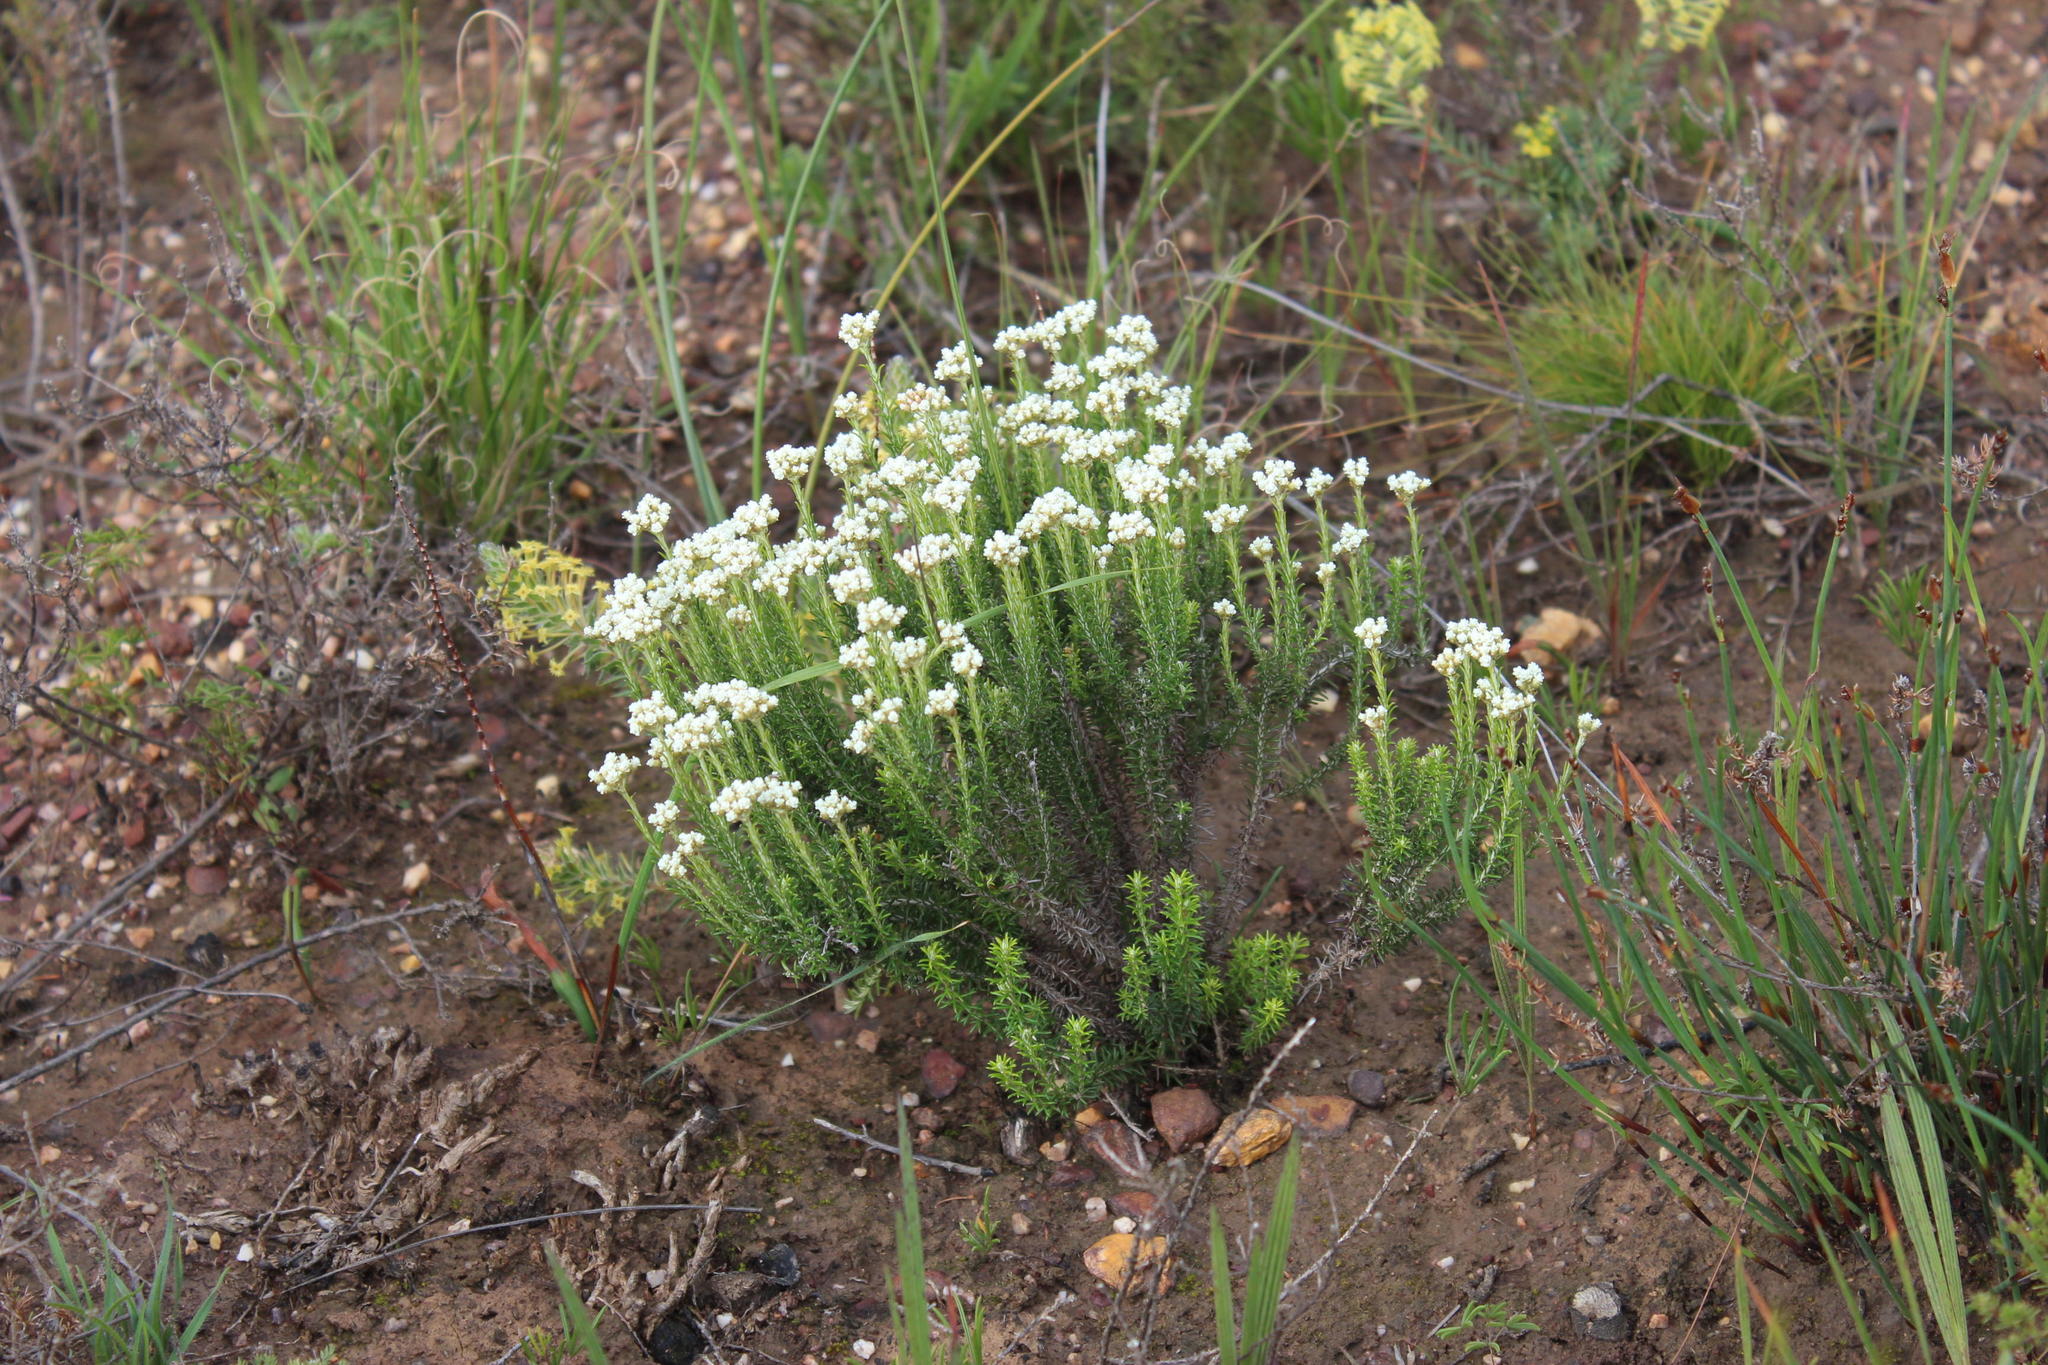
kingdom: Plantae
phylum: Tracheophyta
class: Magnoliopsida
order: Asterales
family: Asteraceae
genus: Helichrysum
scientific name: Helichrysum teretifolium
